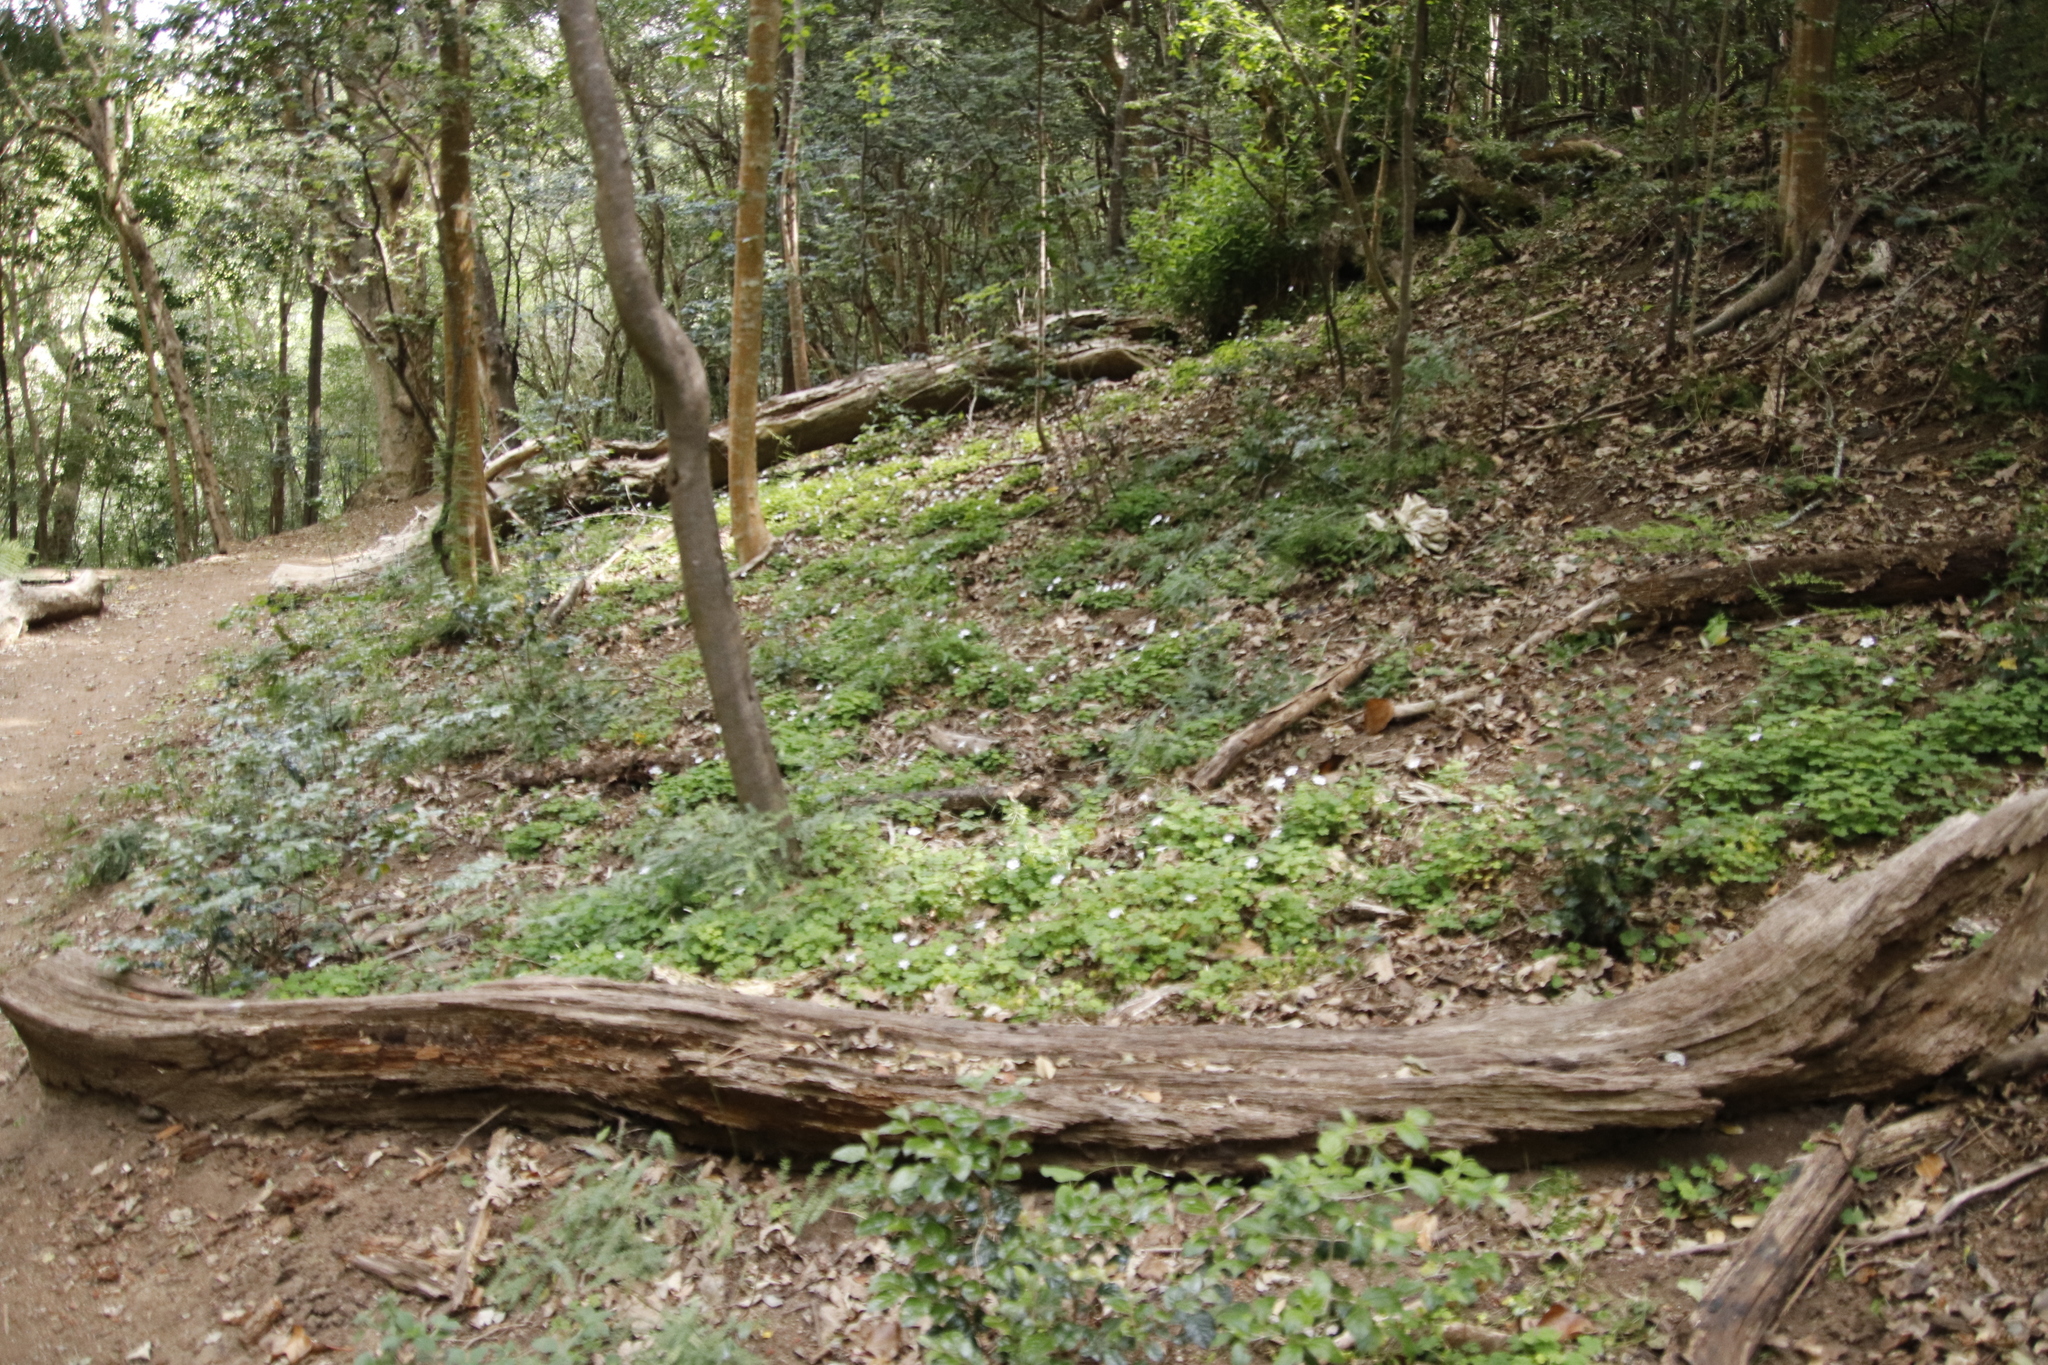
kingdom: Plantae
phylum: Tracheophyta
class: Magnoliopsida
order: Oxalidales
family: Oxalidaceae
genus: Oxalis
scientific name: Oxalis incarnata
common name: Pale pink-sorrel
